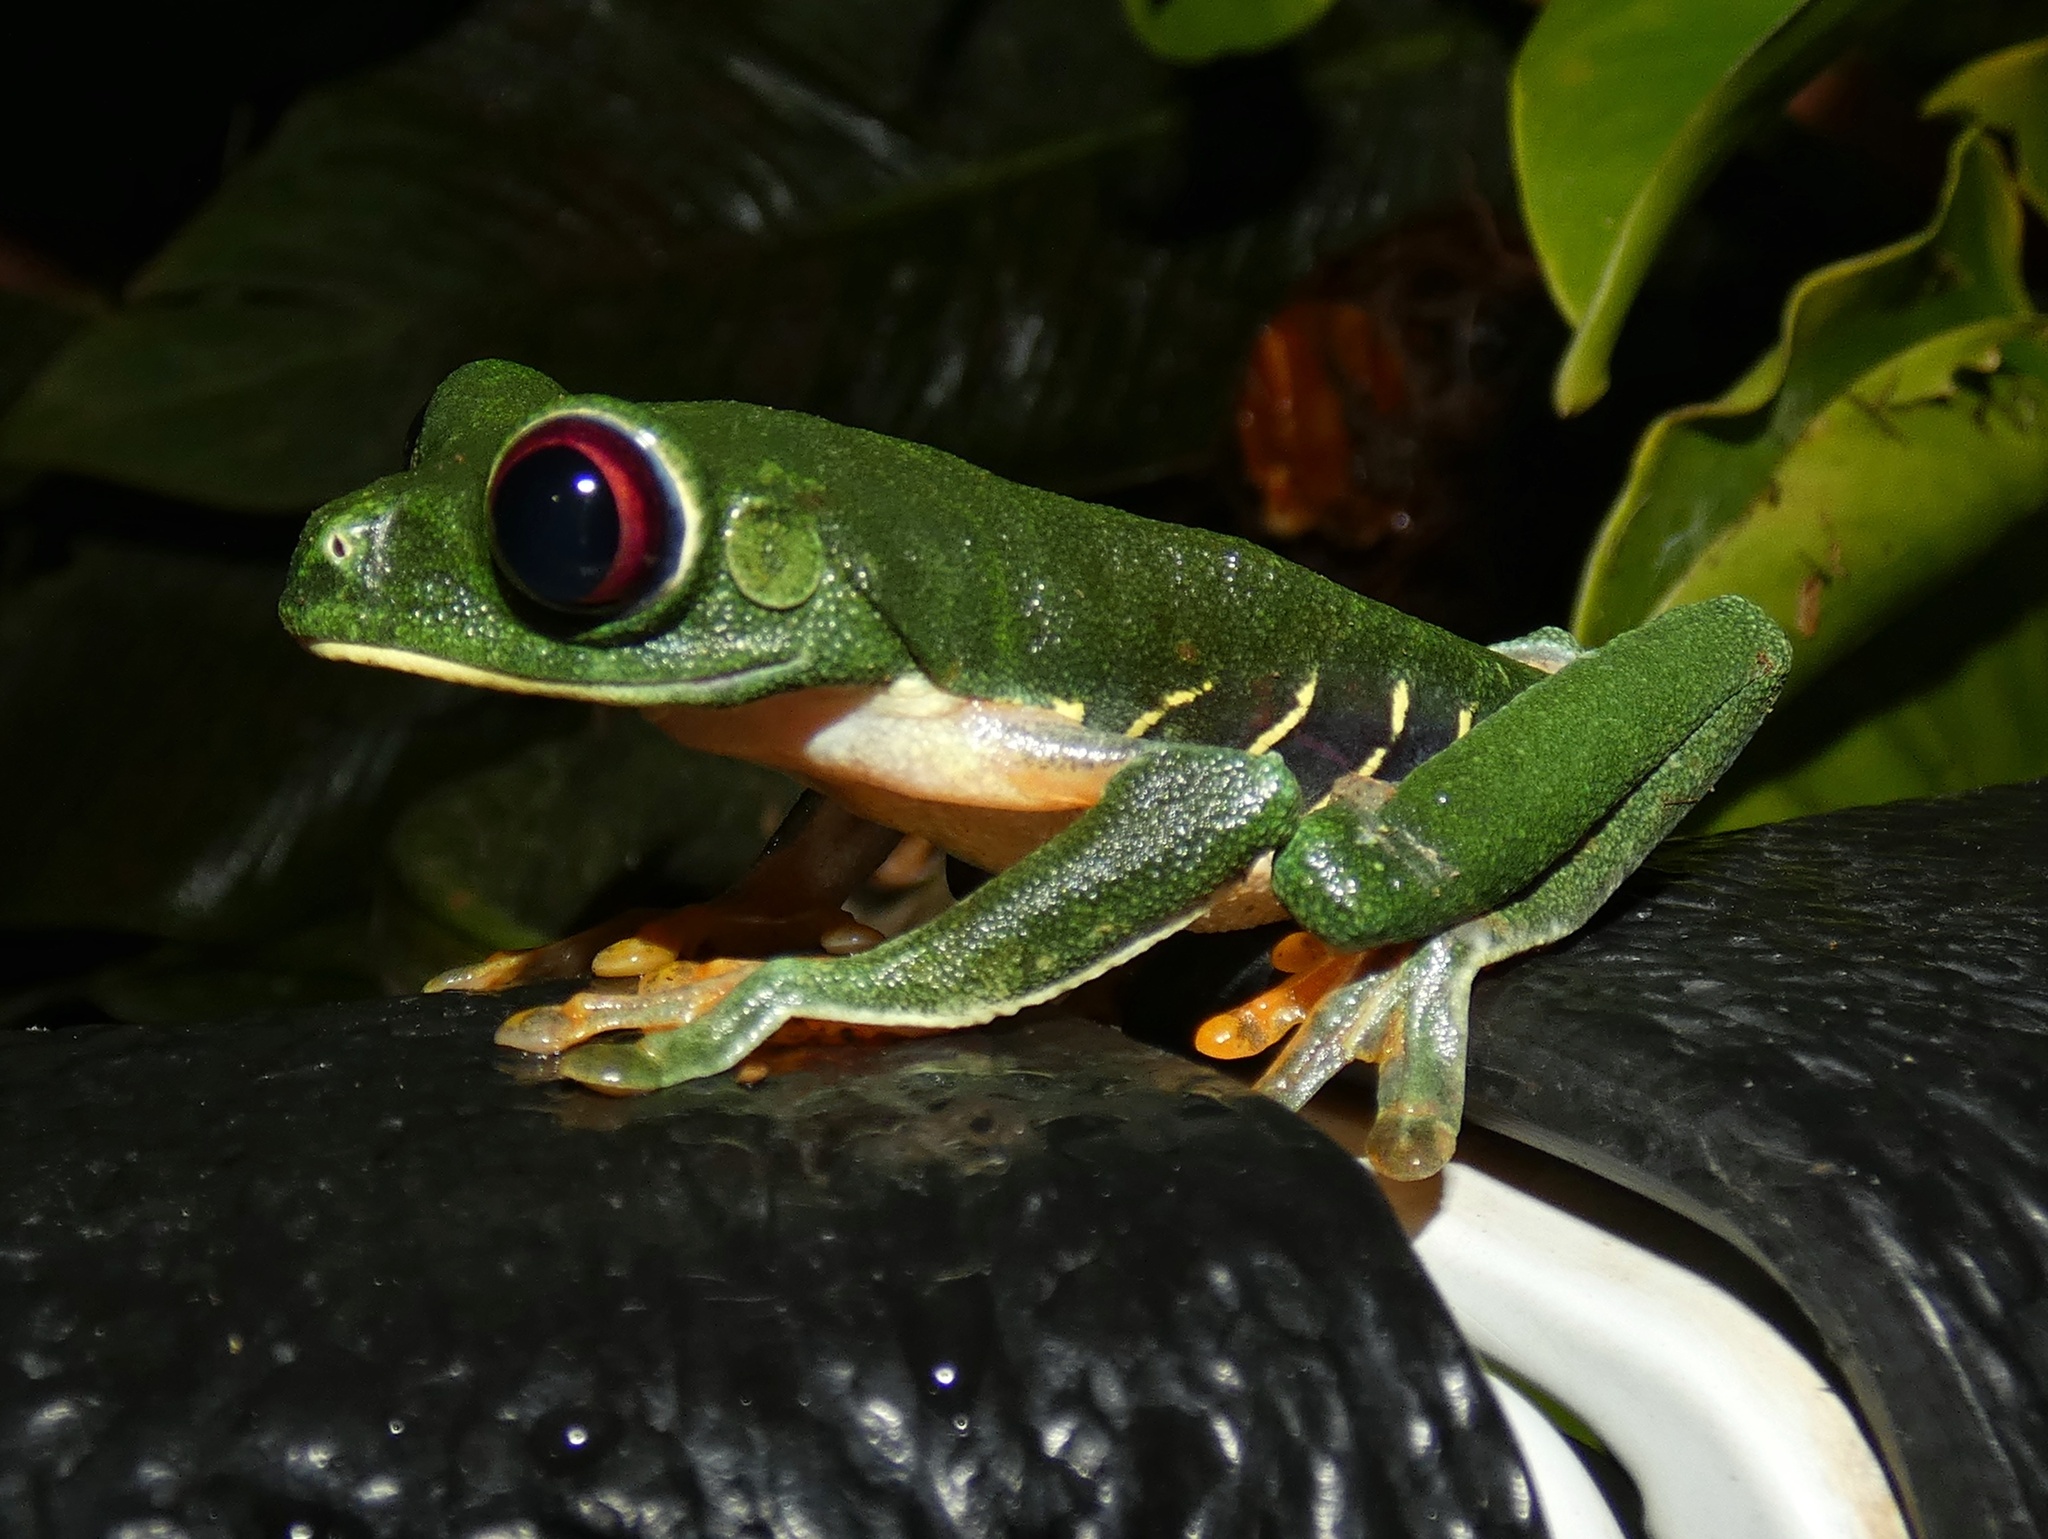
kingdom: Animalia
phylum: Chordata
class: Amphibia
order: Anura
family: Phyllomedusidae
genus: Agalychnis
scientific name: Agalychnis callidryas
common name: Red-eyed treefrog
